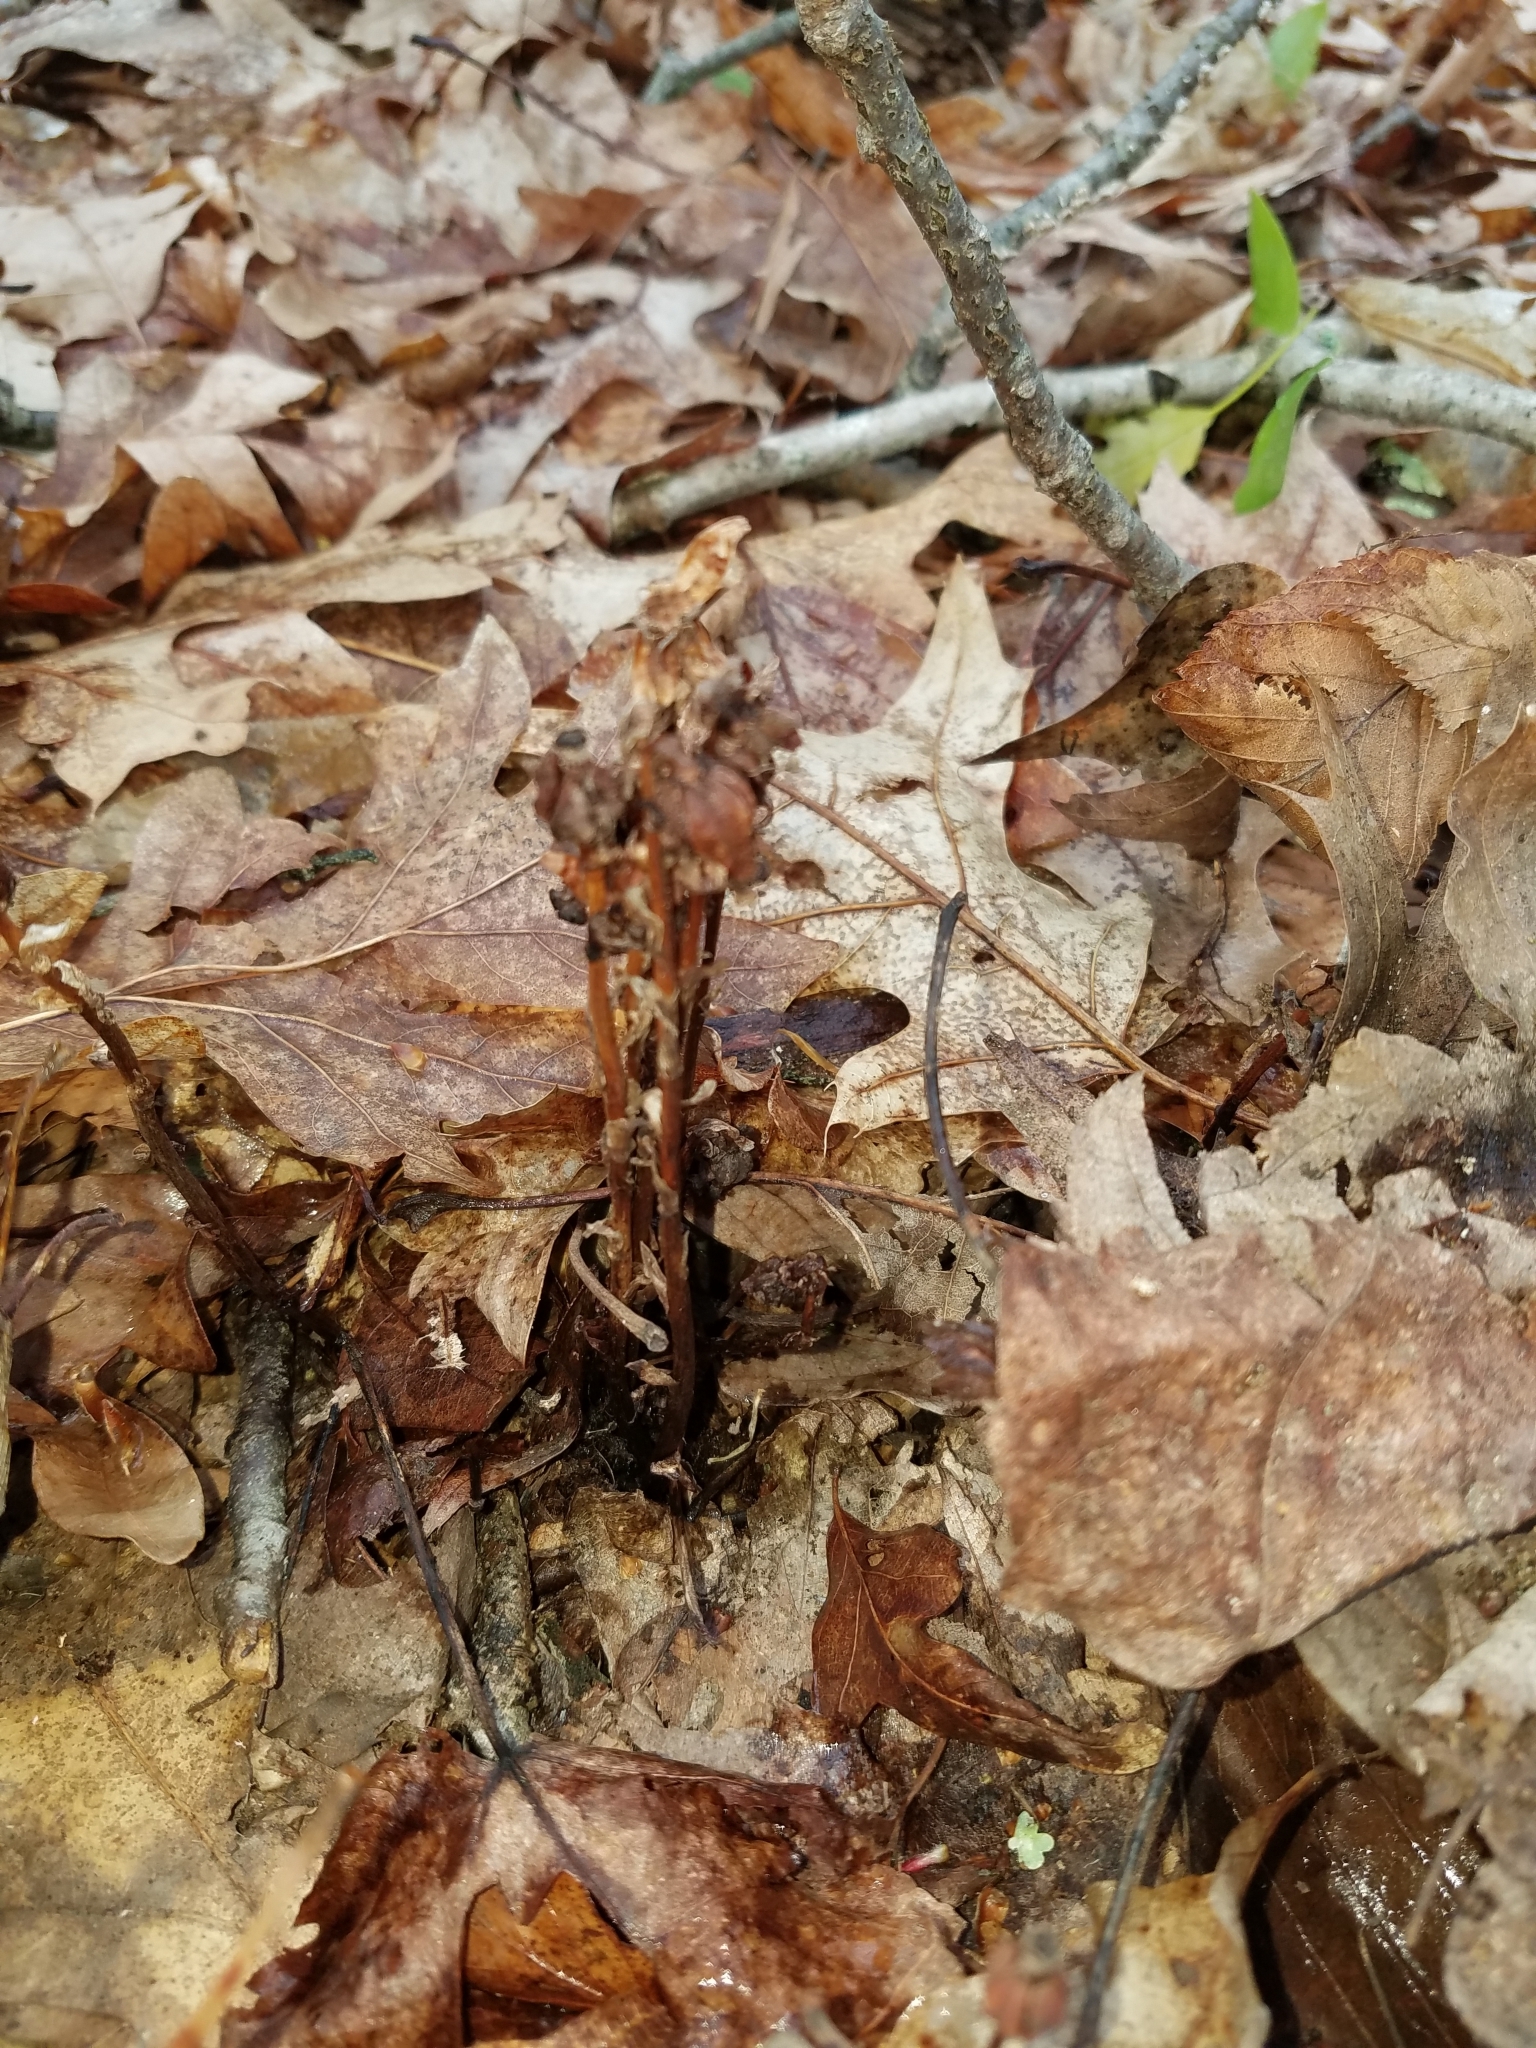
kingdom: Plantae
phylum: Tracheophyta
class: Magnoliopsida
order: Ericales
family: Ericaceae
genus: Monotropa
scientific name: Monotropa uniflora
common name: Convulsion root
